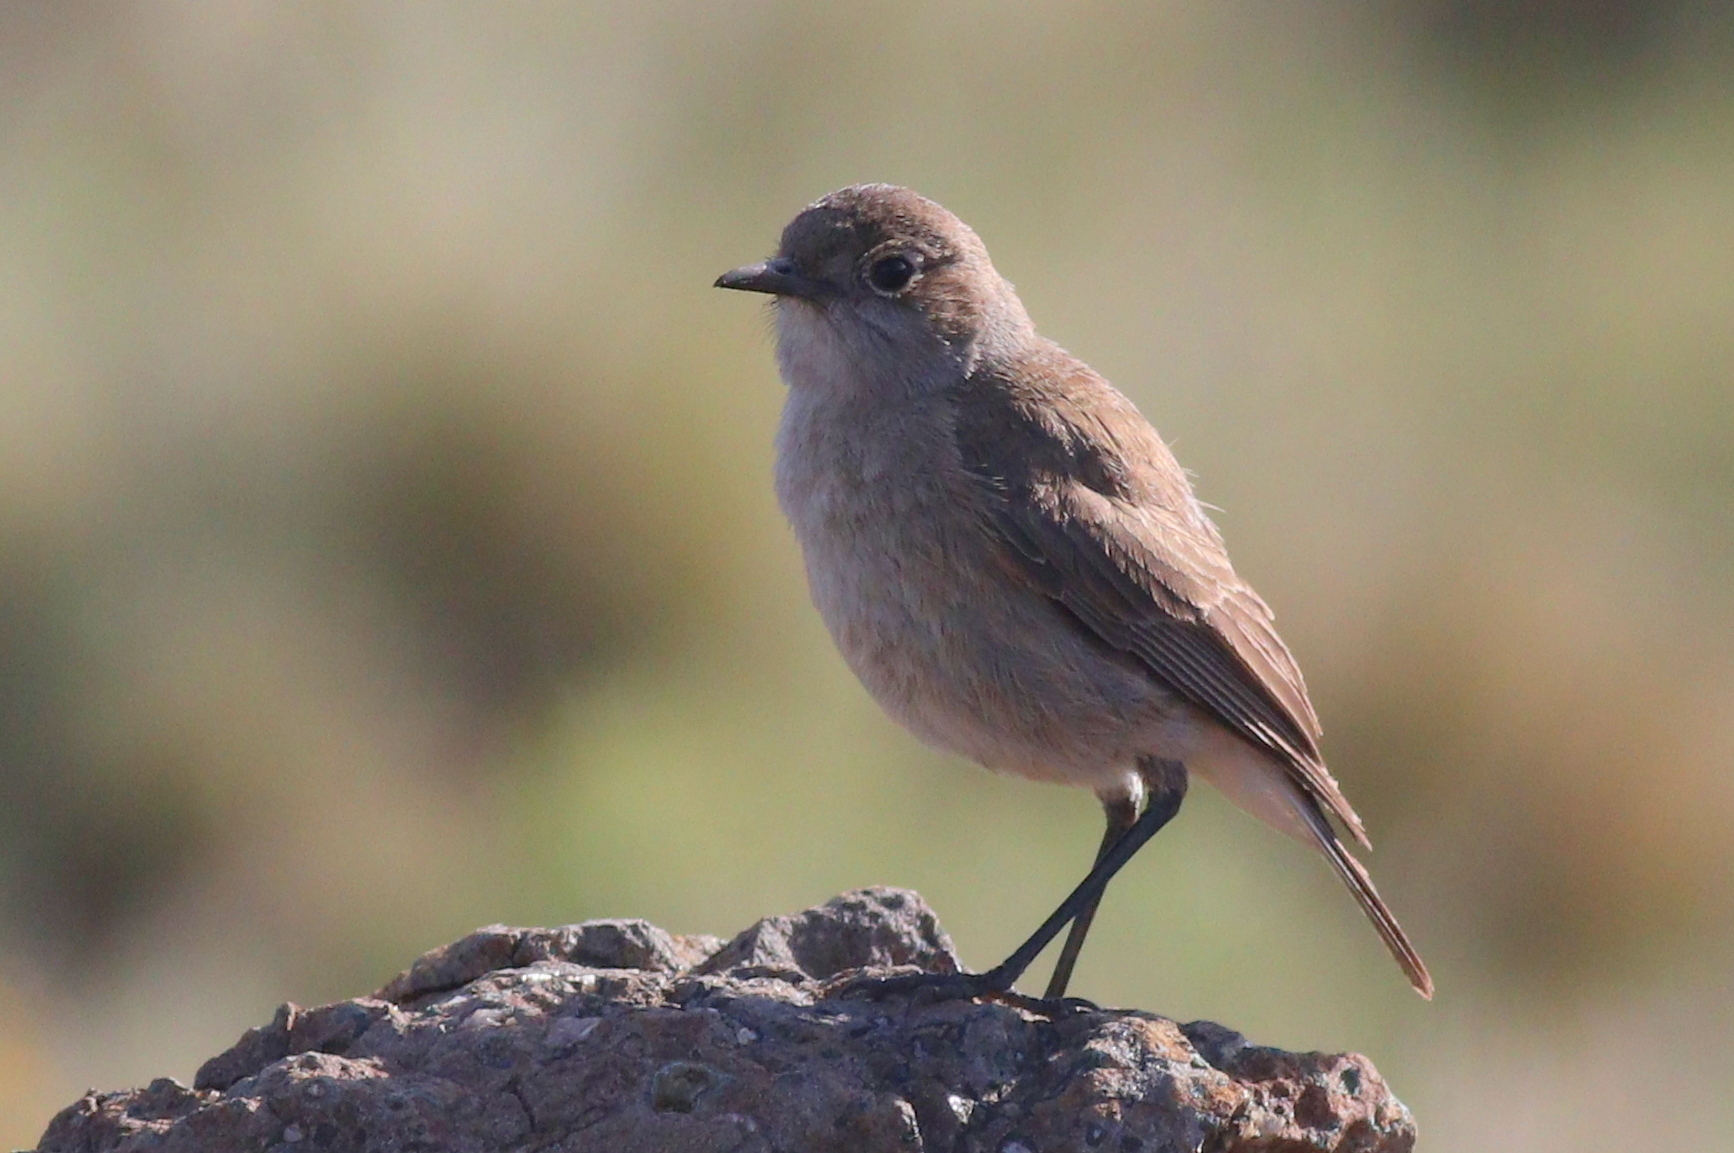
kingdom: Animalia
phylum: Chordata
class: Aves
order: Passeriformes
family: Muscicapidae
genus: Emarginata
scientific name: Emarginata sinuata
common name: Sickle-winged chat
